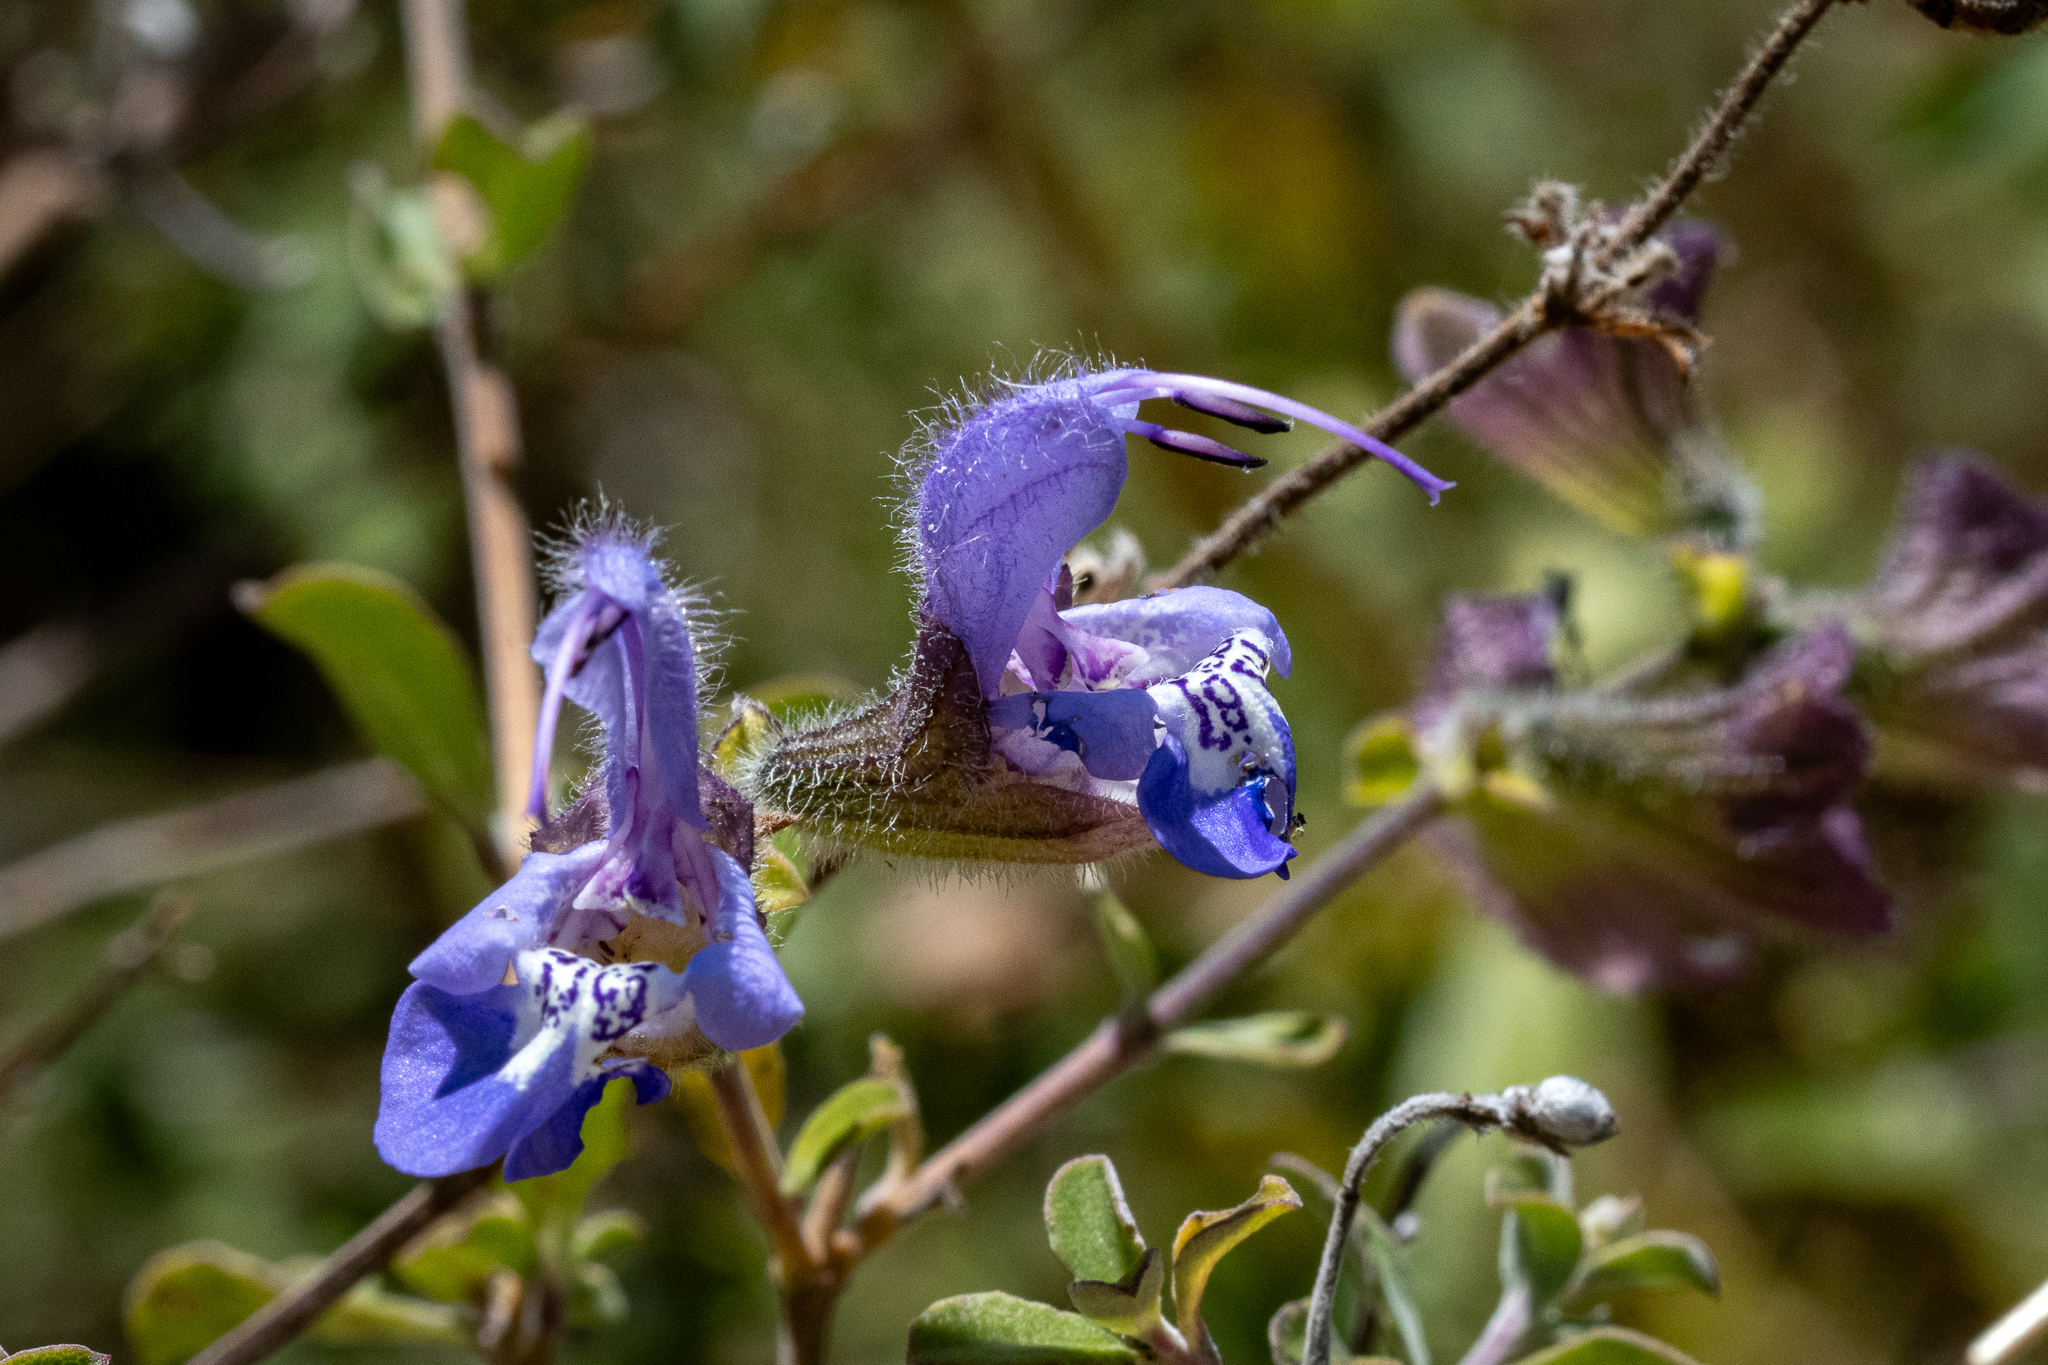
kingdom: Plantae
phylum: Tracheophyta
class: Magnoliopsida
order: Lamiales
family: Lamiaceae
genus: Salvia
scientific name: Salvia africana
